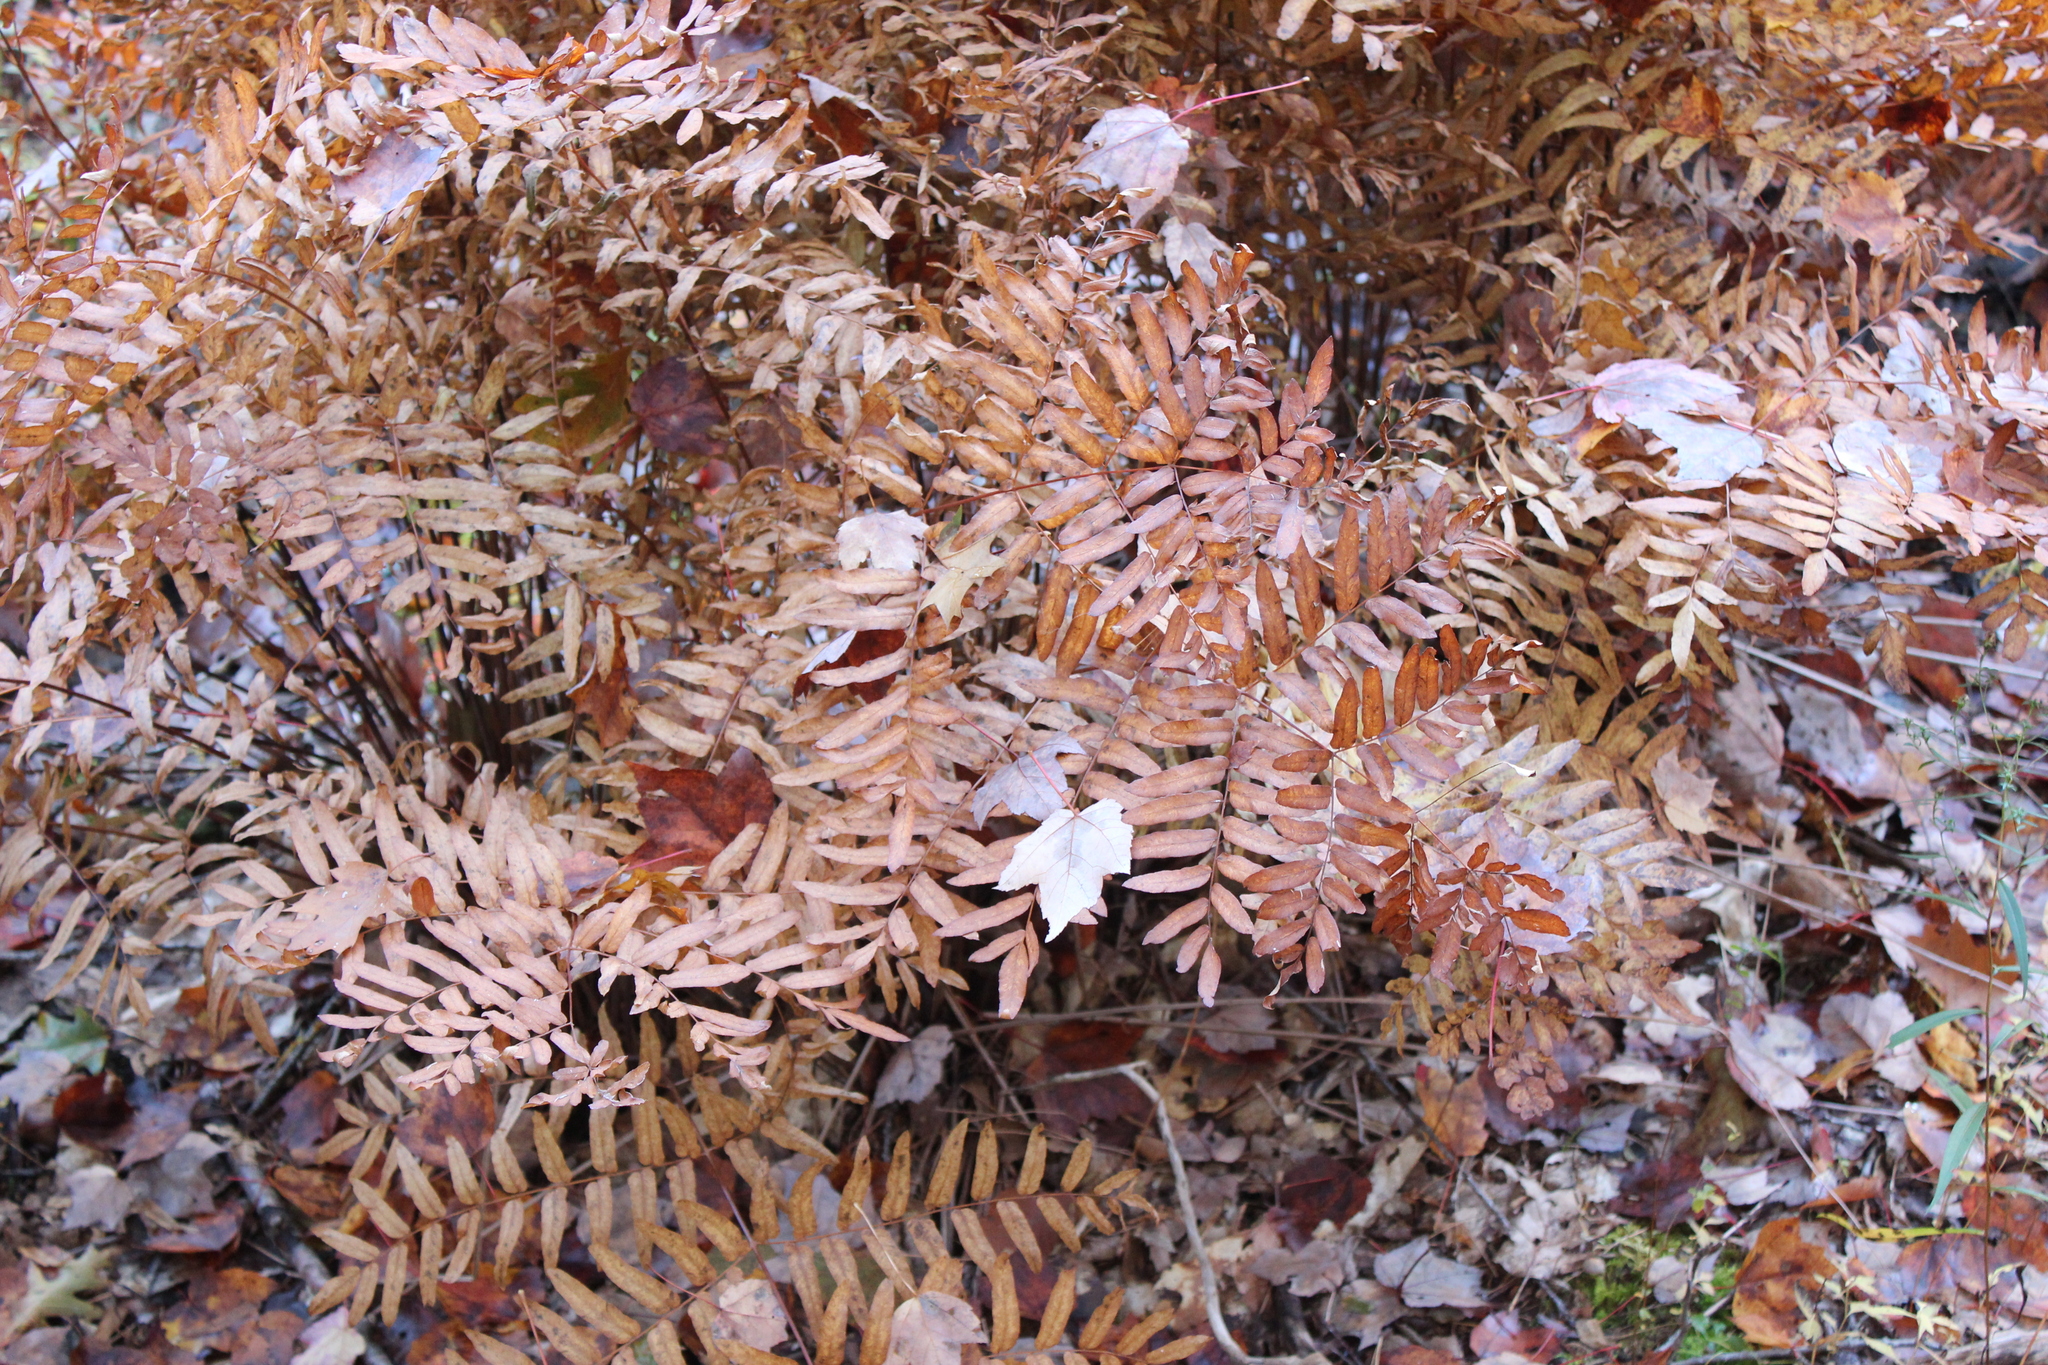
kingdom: Plantae
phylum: Tracheophyta
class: Polypodiopsida
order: Osmundales
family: Osmundaceae
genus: Osmunda
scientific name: Osmunda spectabilis
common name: American royal fern
